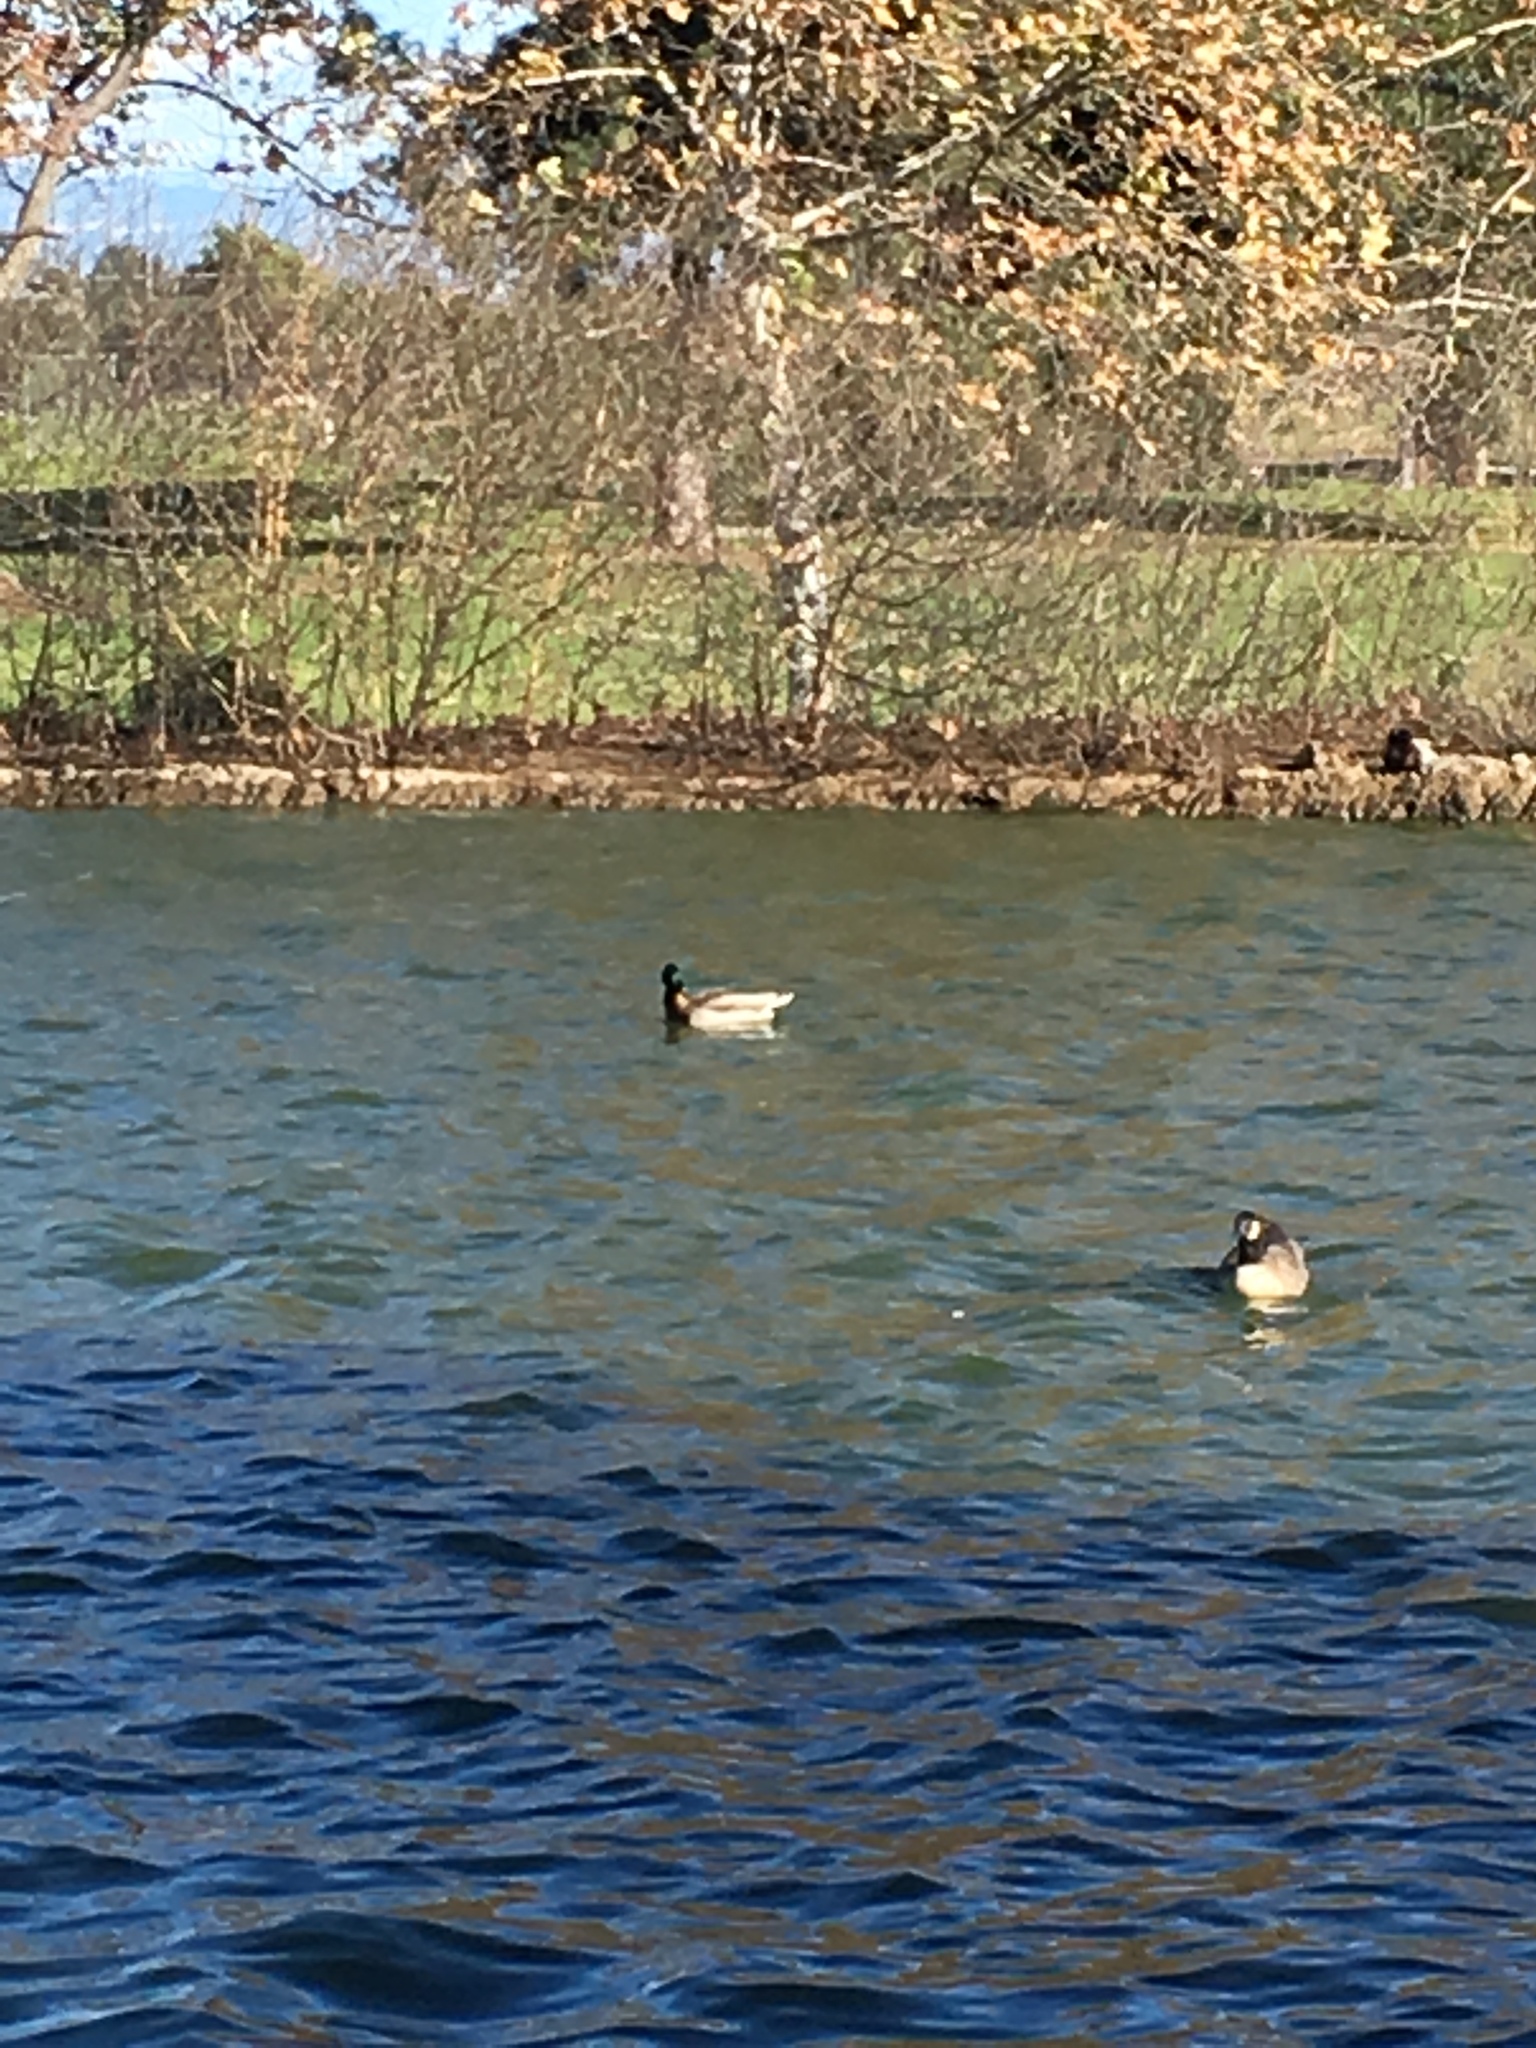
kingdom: Animalia
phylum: Chordata
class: Aves
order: Anseriformes
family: Anatidae
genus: Anas
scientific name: Anas platyrhynchos
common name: Mallard
